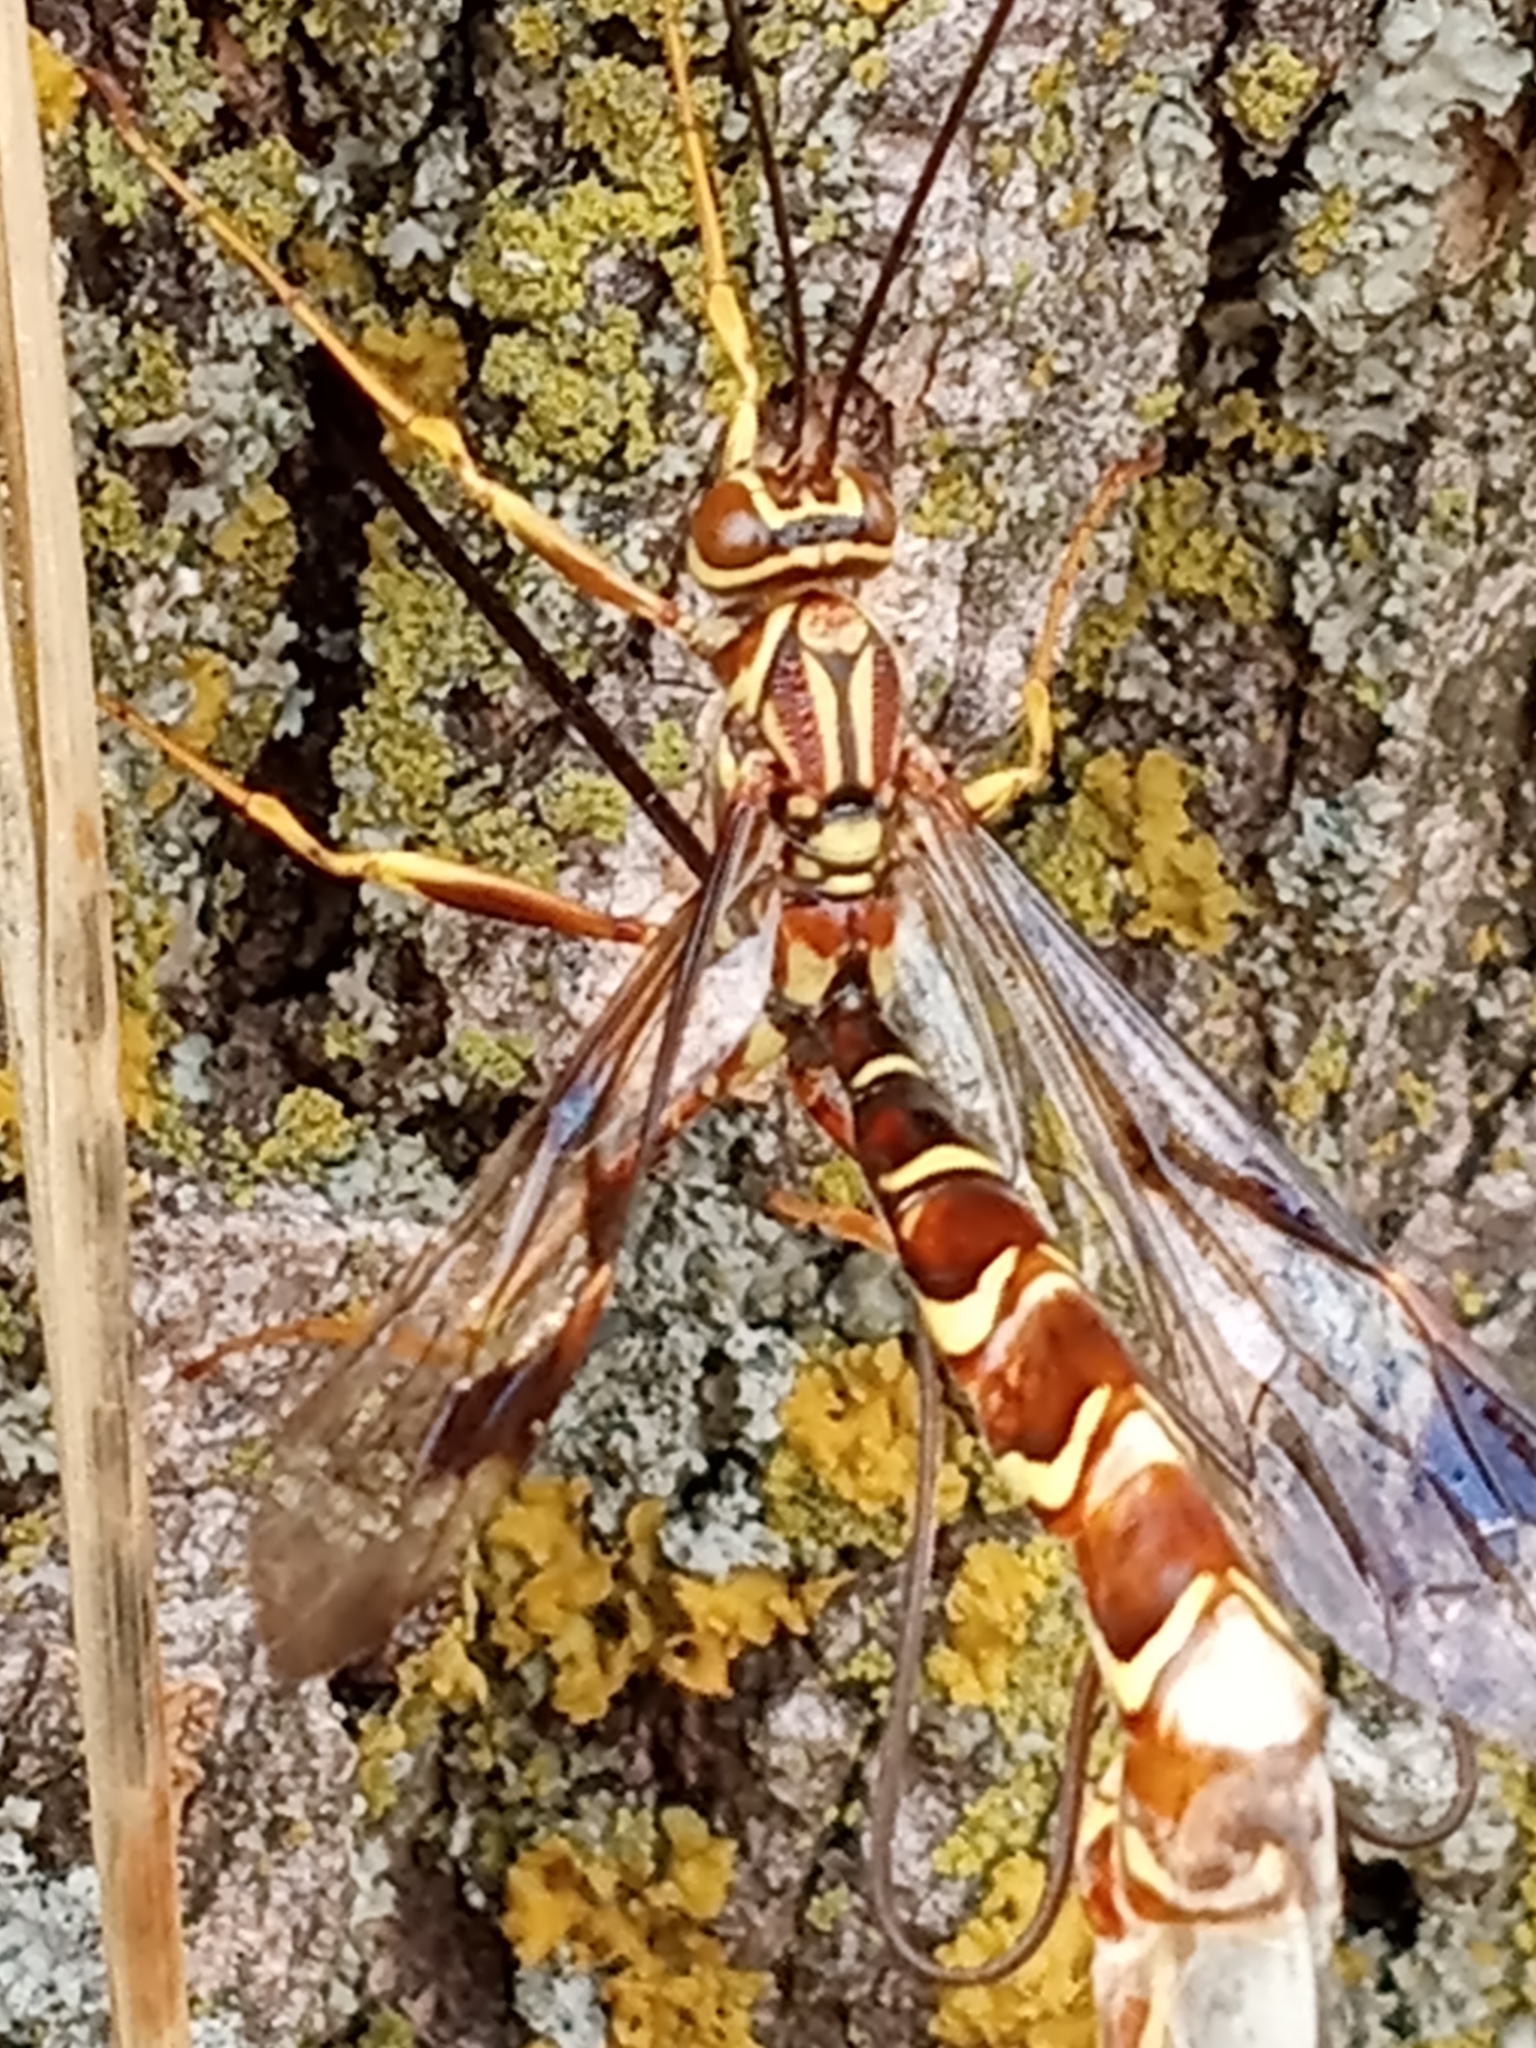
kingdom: Animalia
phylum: Arthropoda
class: Insecta
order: Hymenoptera
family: Ichneumonidae
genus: Megarhyssa
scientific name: Megarhyssa macrura
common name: Long-tailed giant ichneumonid wasp
